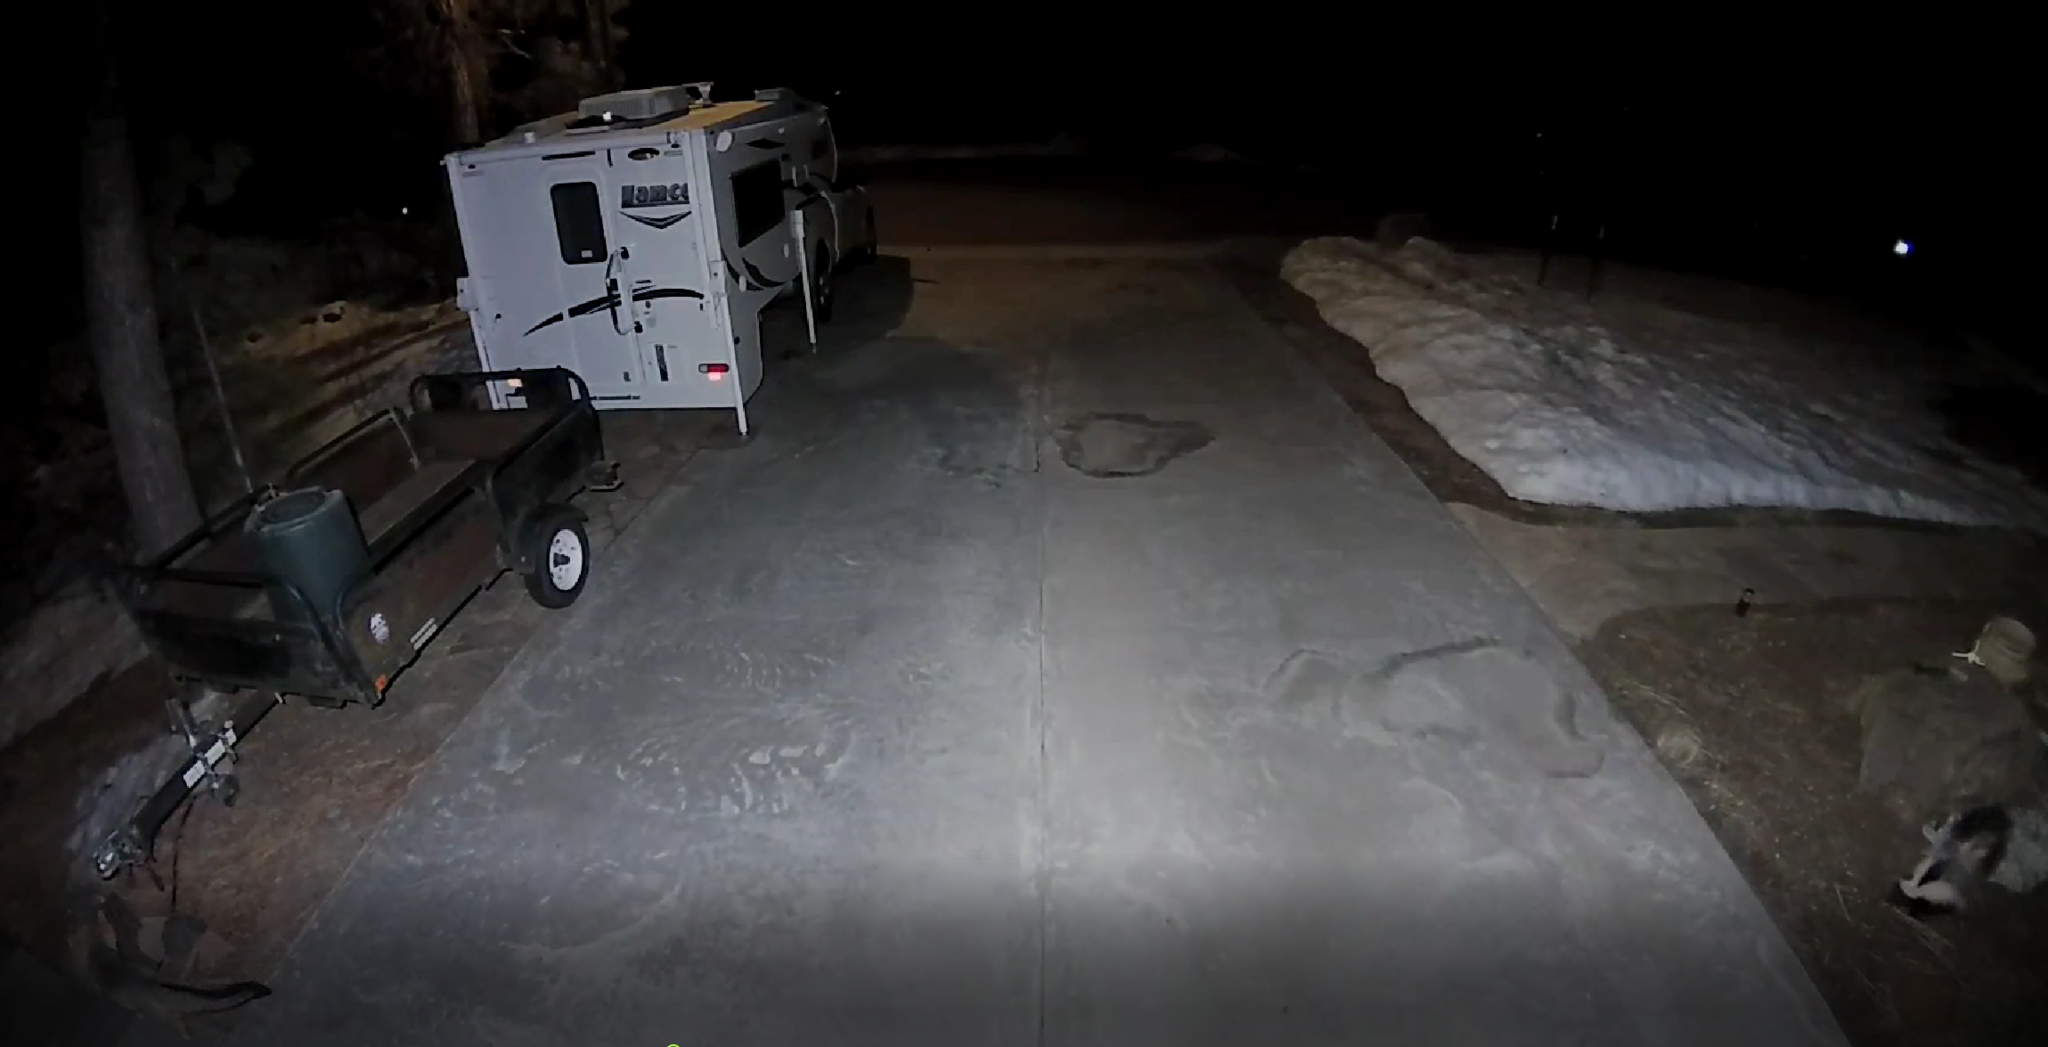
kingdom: Animalia
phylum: Chordata
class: Mammalia
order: Carnivora
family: Canidae
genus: Urocyon
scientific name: Urocyon cinereoargenteus
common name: Gray fox
